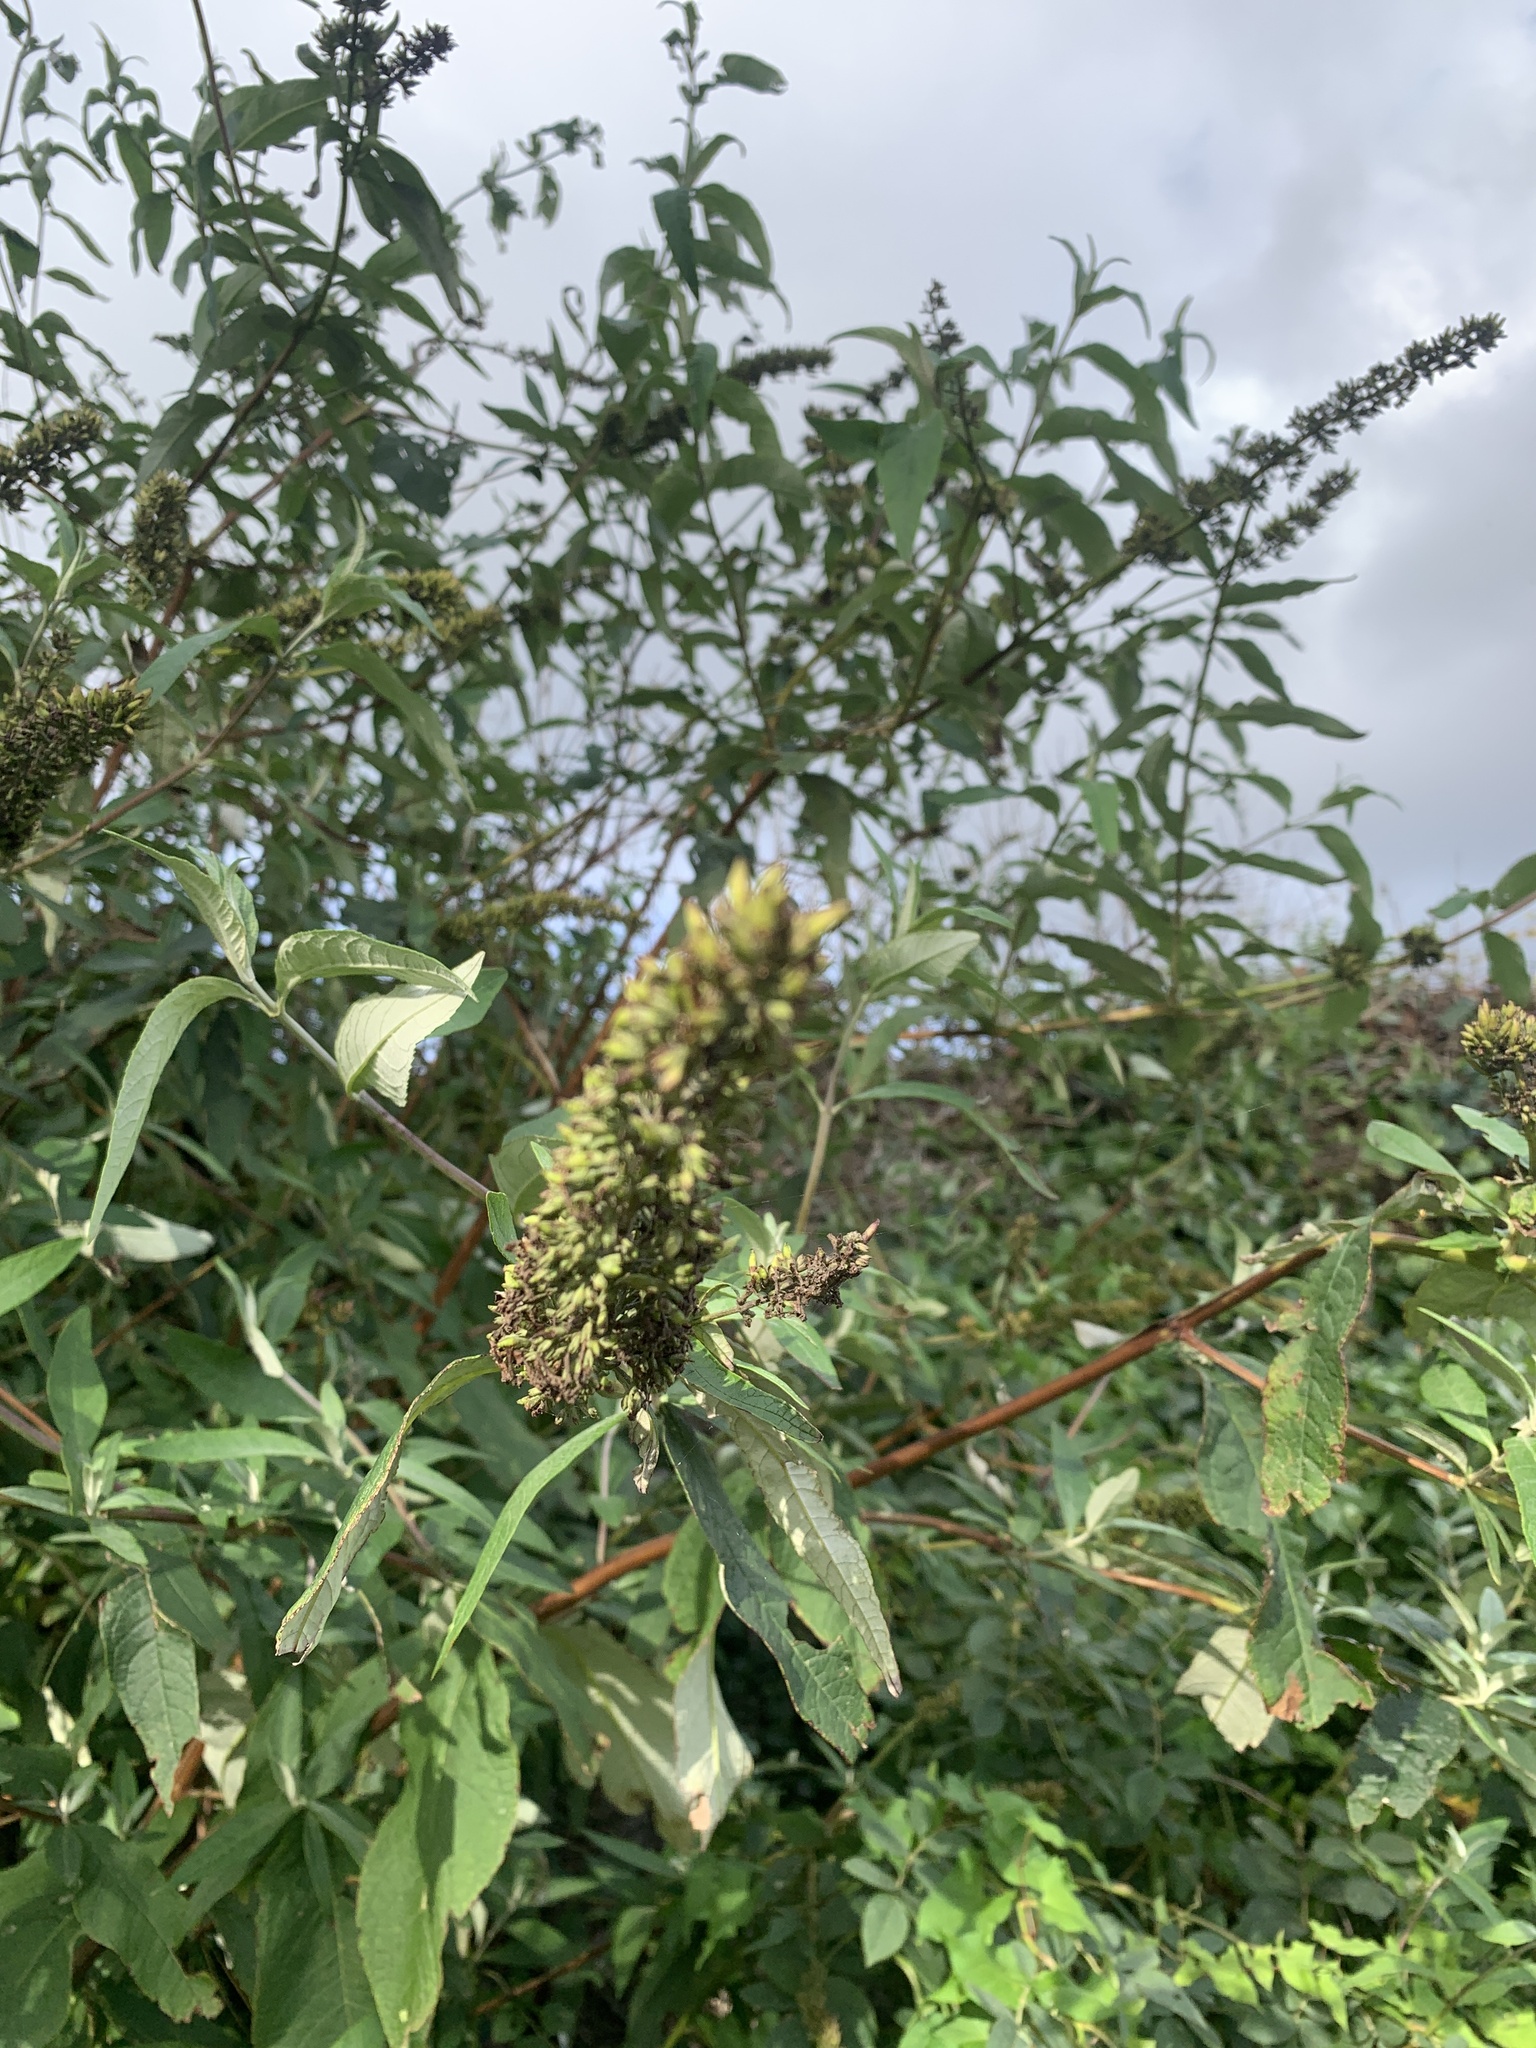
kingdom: Plantae
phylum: Tracheophyta
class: Magnoliopsida
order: Lamiales
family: Scrophulariaceae
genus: Buddleja
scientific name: Buddleja davidii
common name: Butterfly-bush
